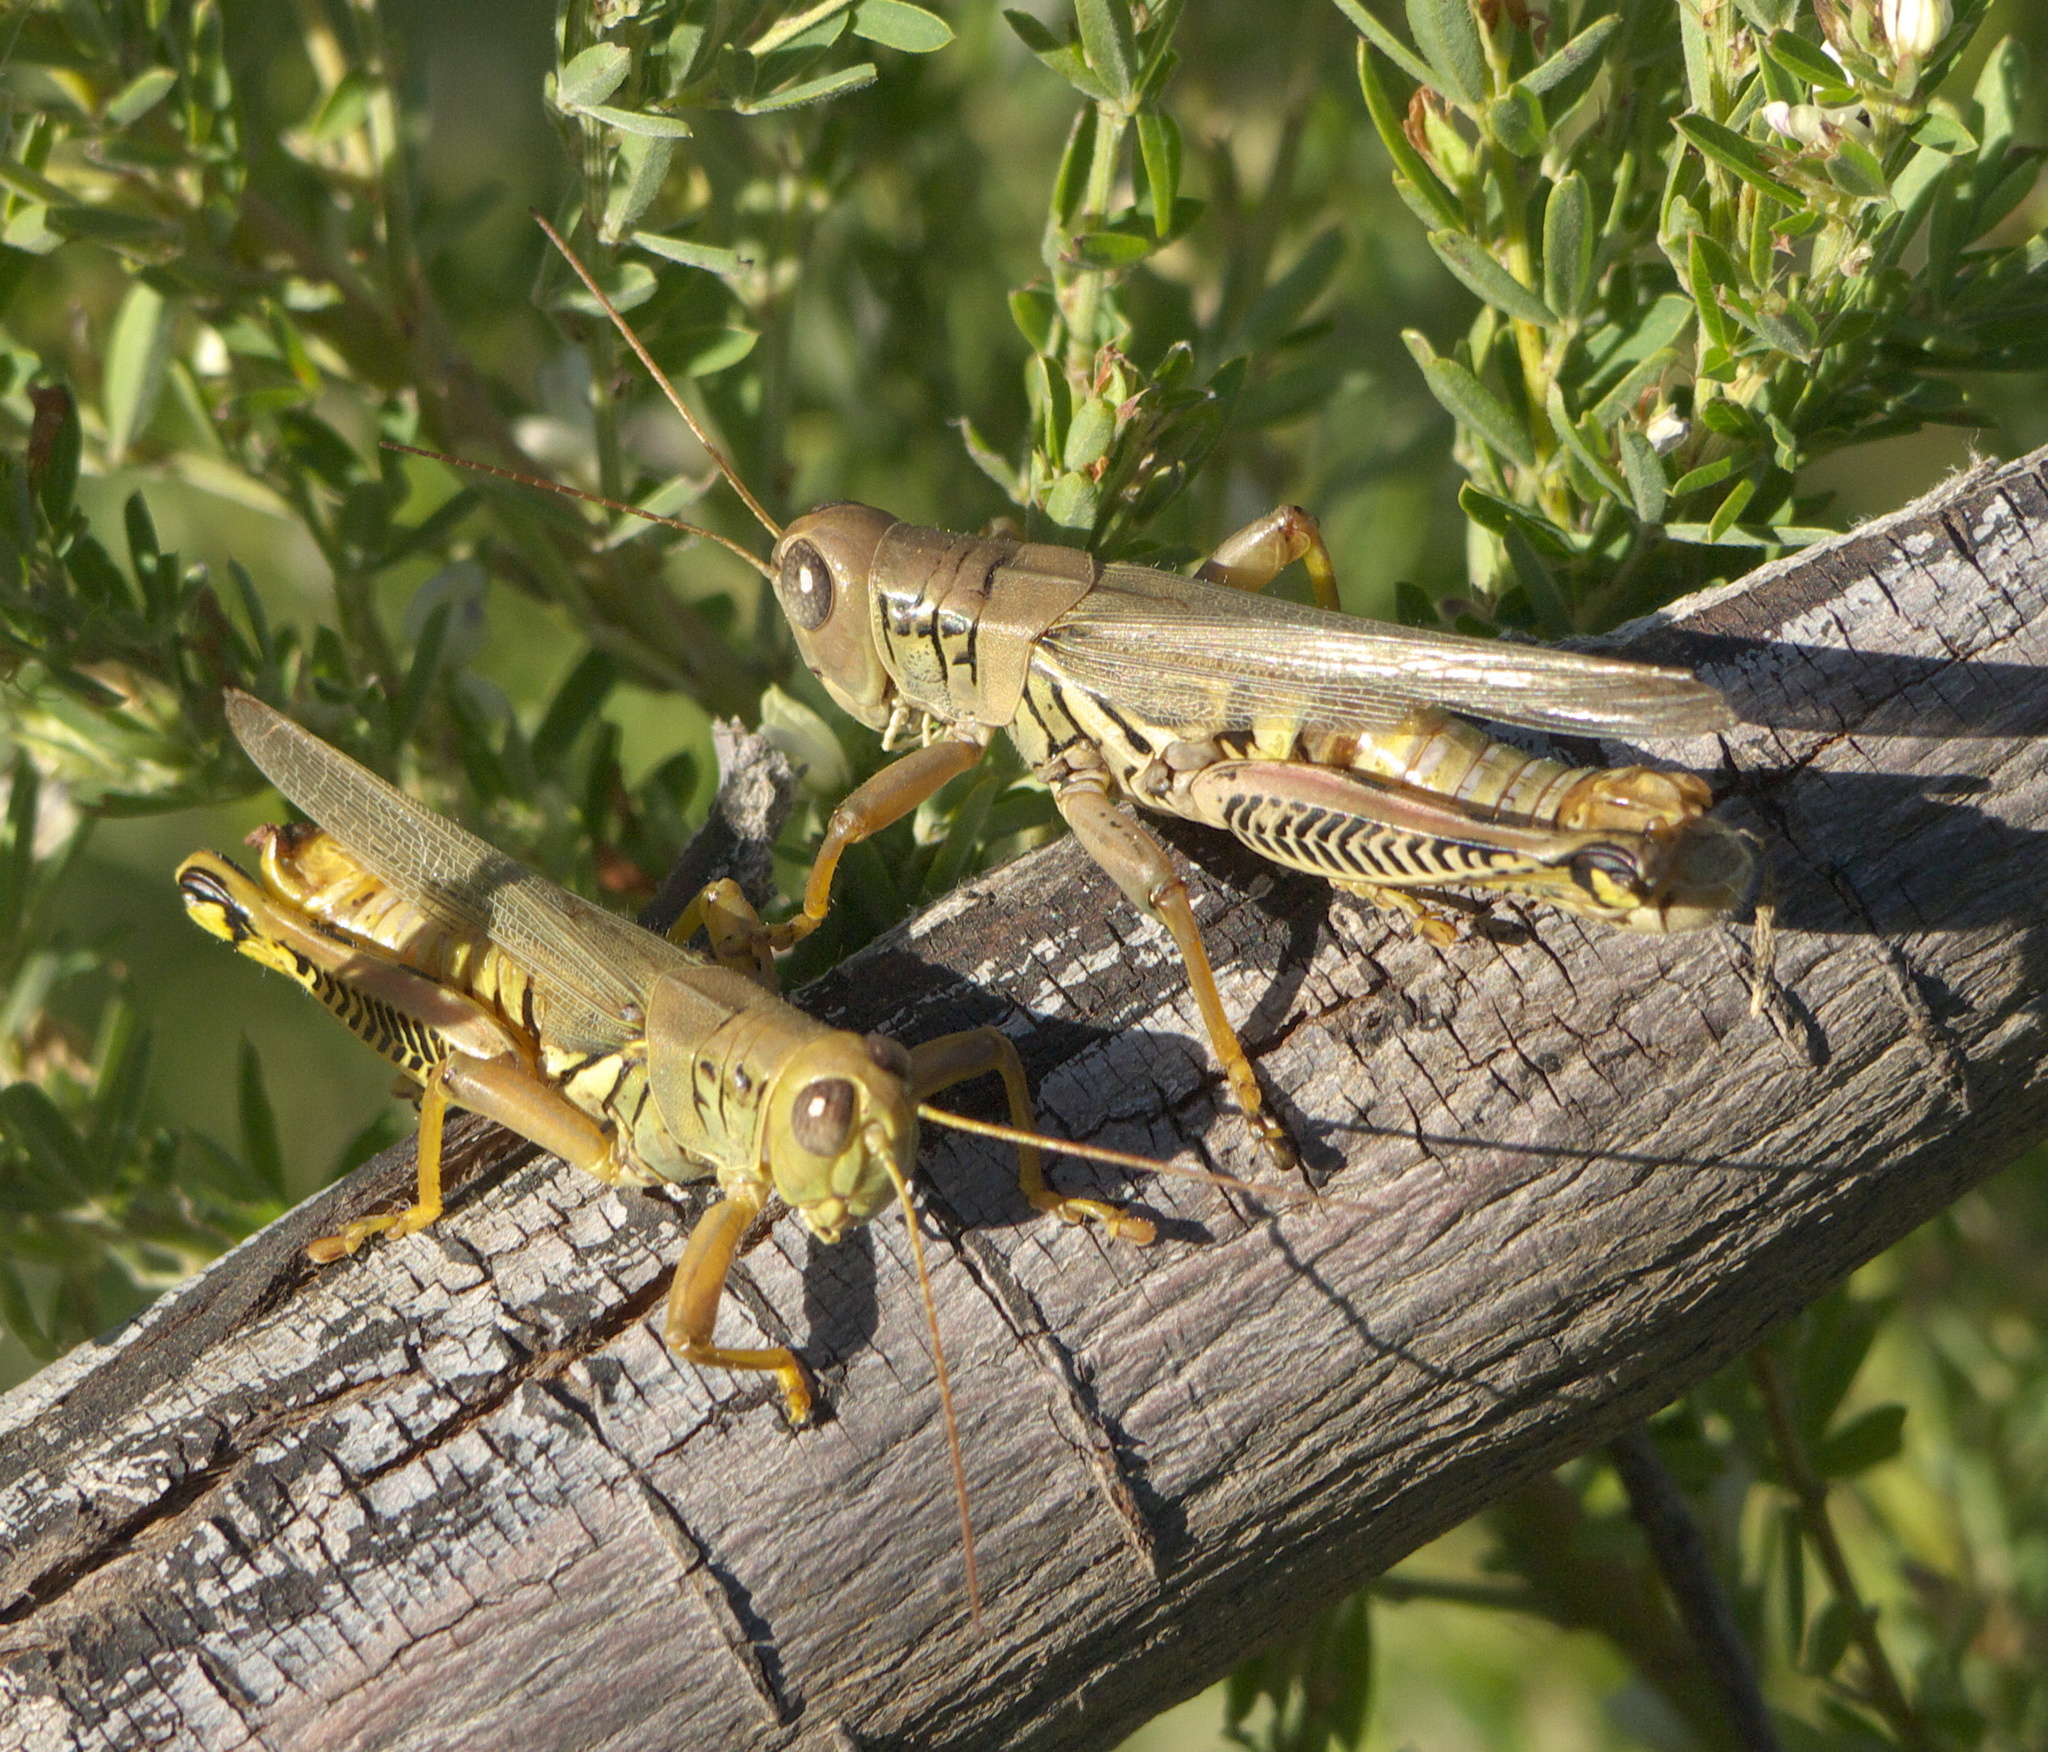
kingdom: Animalia
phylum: Arthropoda
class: Insecta
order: Orthoptera
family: Acrididae
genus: Melanoplus
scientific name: Melanoplus differentialis
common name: Differential grasshopper
